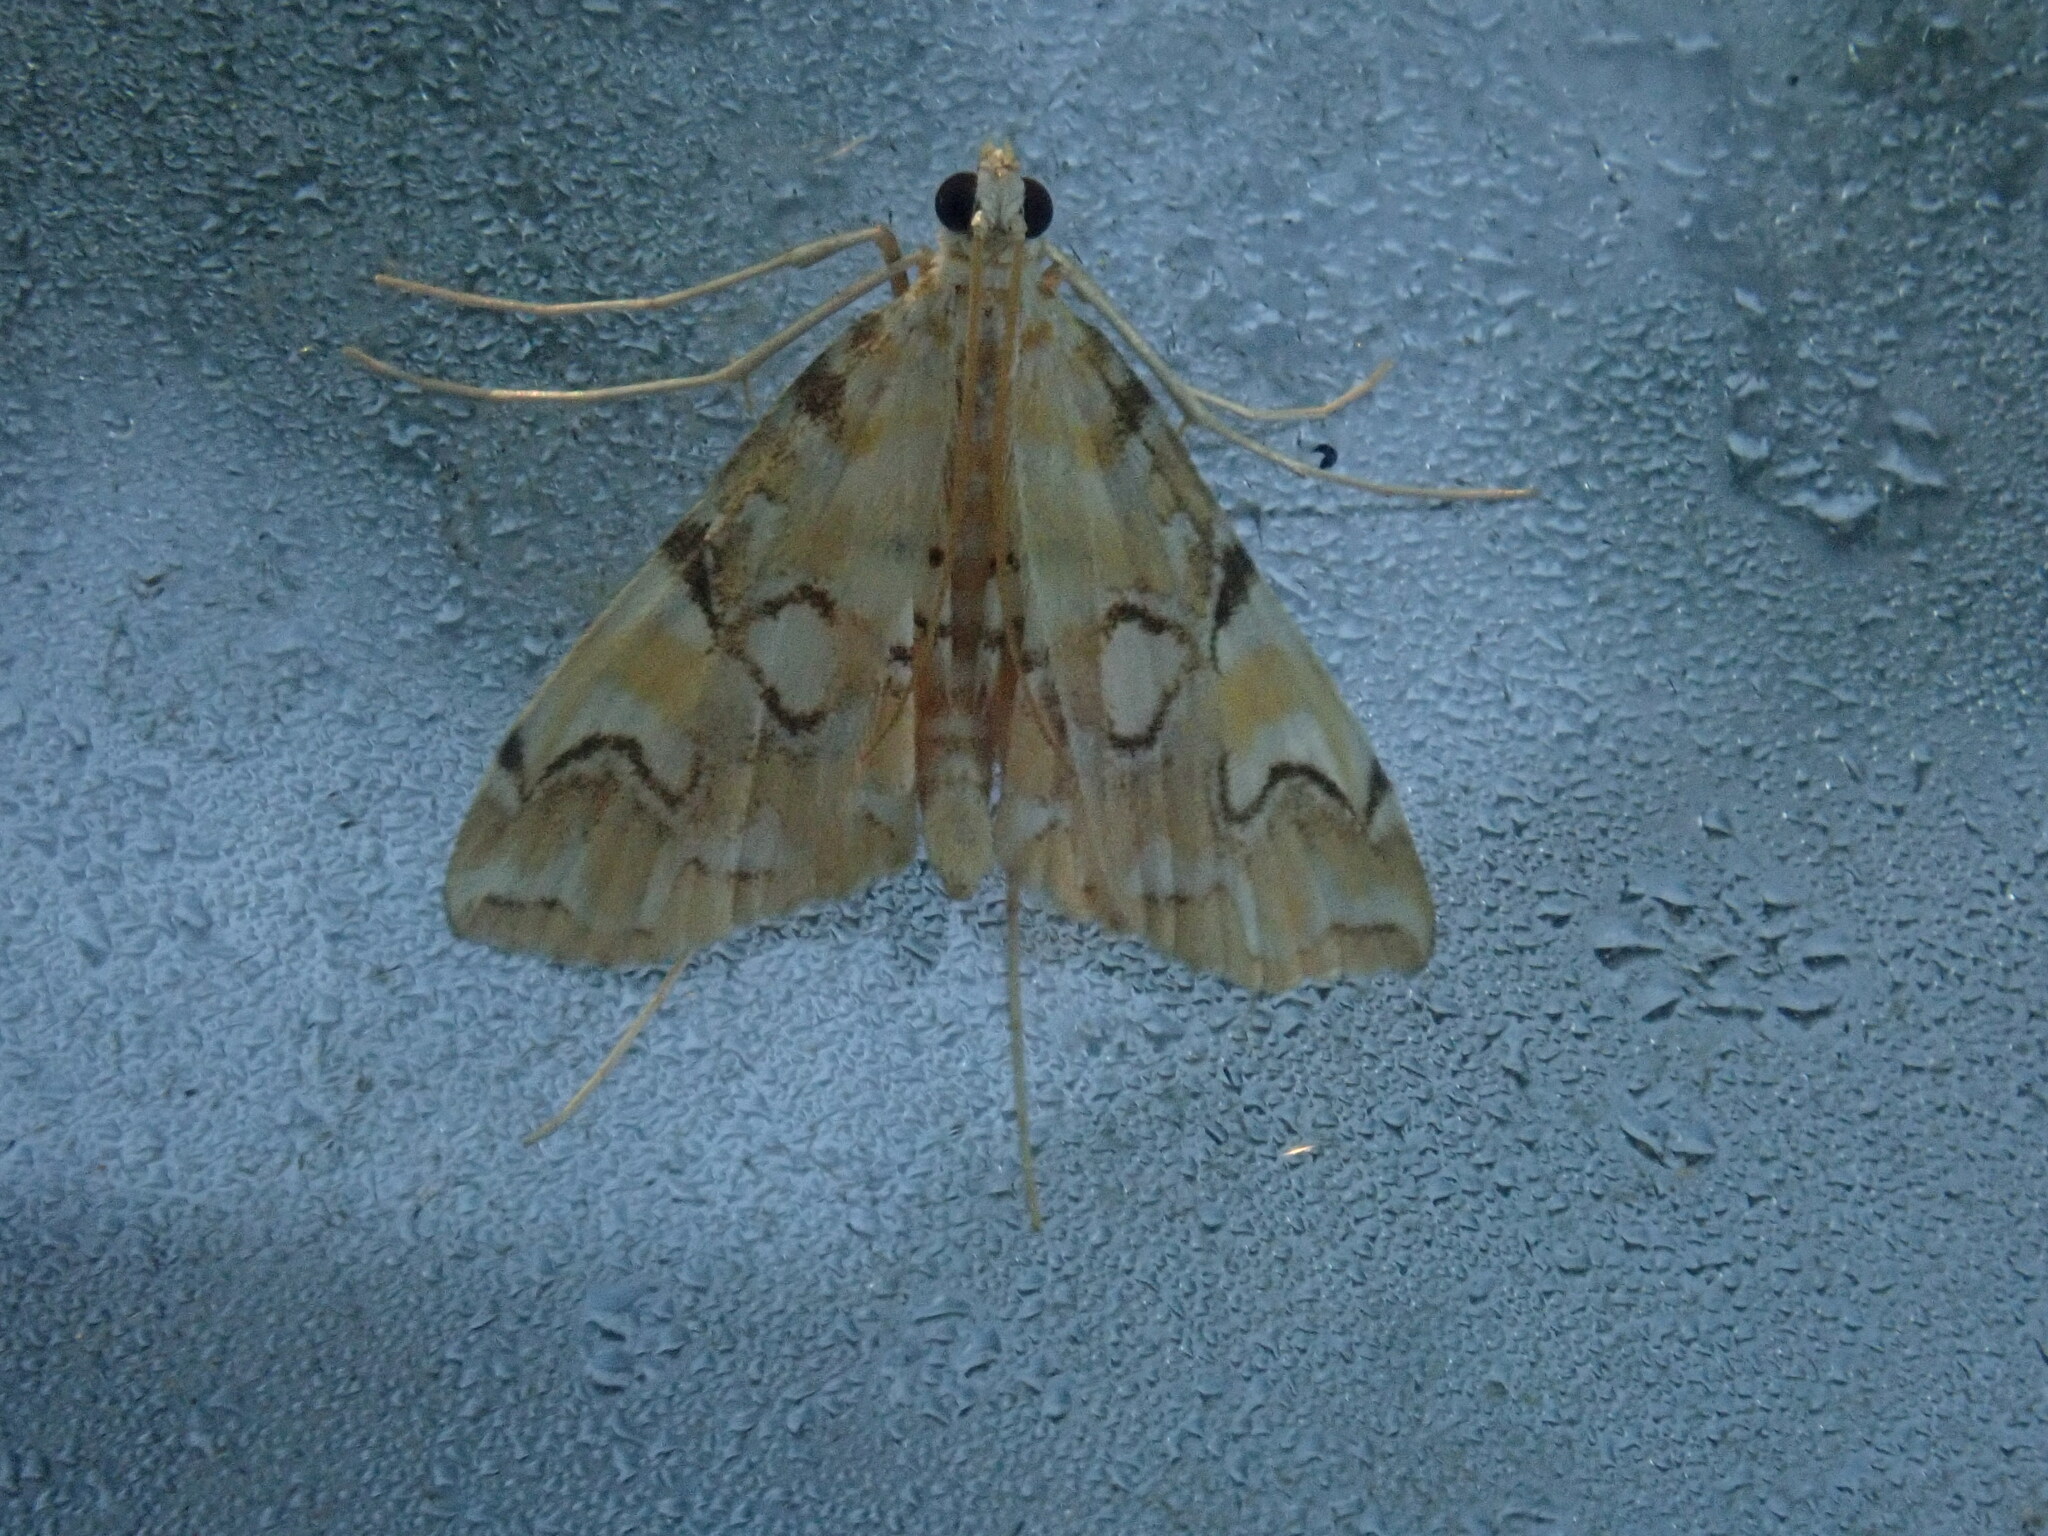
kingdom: Animalia
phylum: Arthropoda
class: Insecta
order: Lepidoptera
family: Crambidae
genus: Elophila
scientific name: Elophila icciusalis
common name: Pondside pyralid moth
